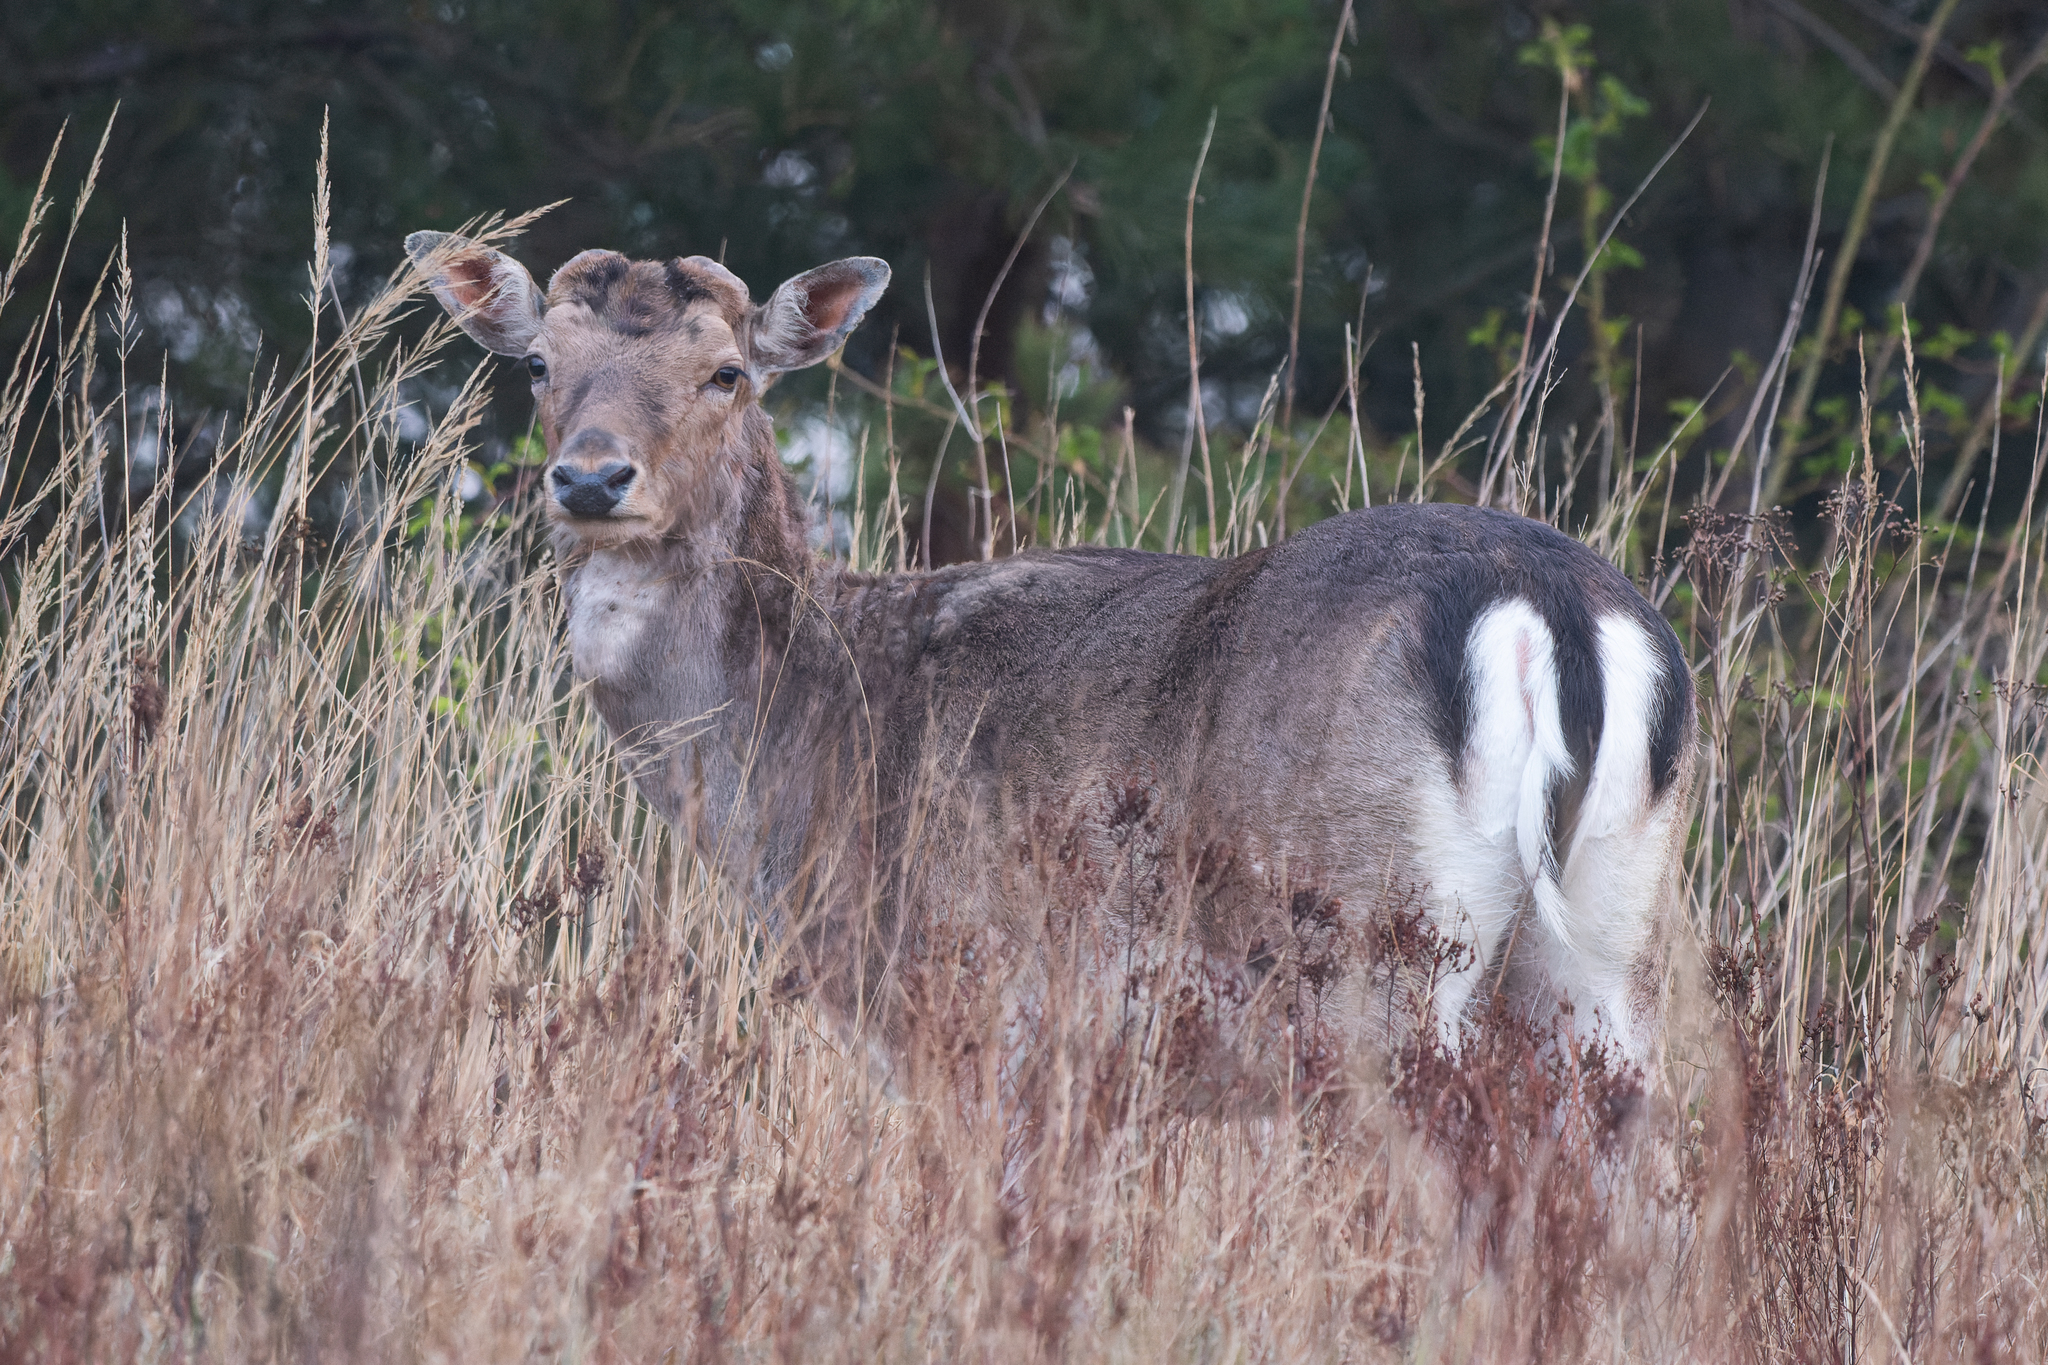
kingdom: Animalia
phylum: Chordata
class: Mammalia
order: Artiodactyla
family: Cervidae
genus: Dama
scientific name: Dama dama
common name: Fallow deer
